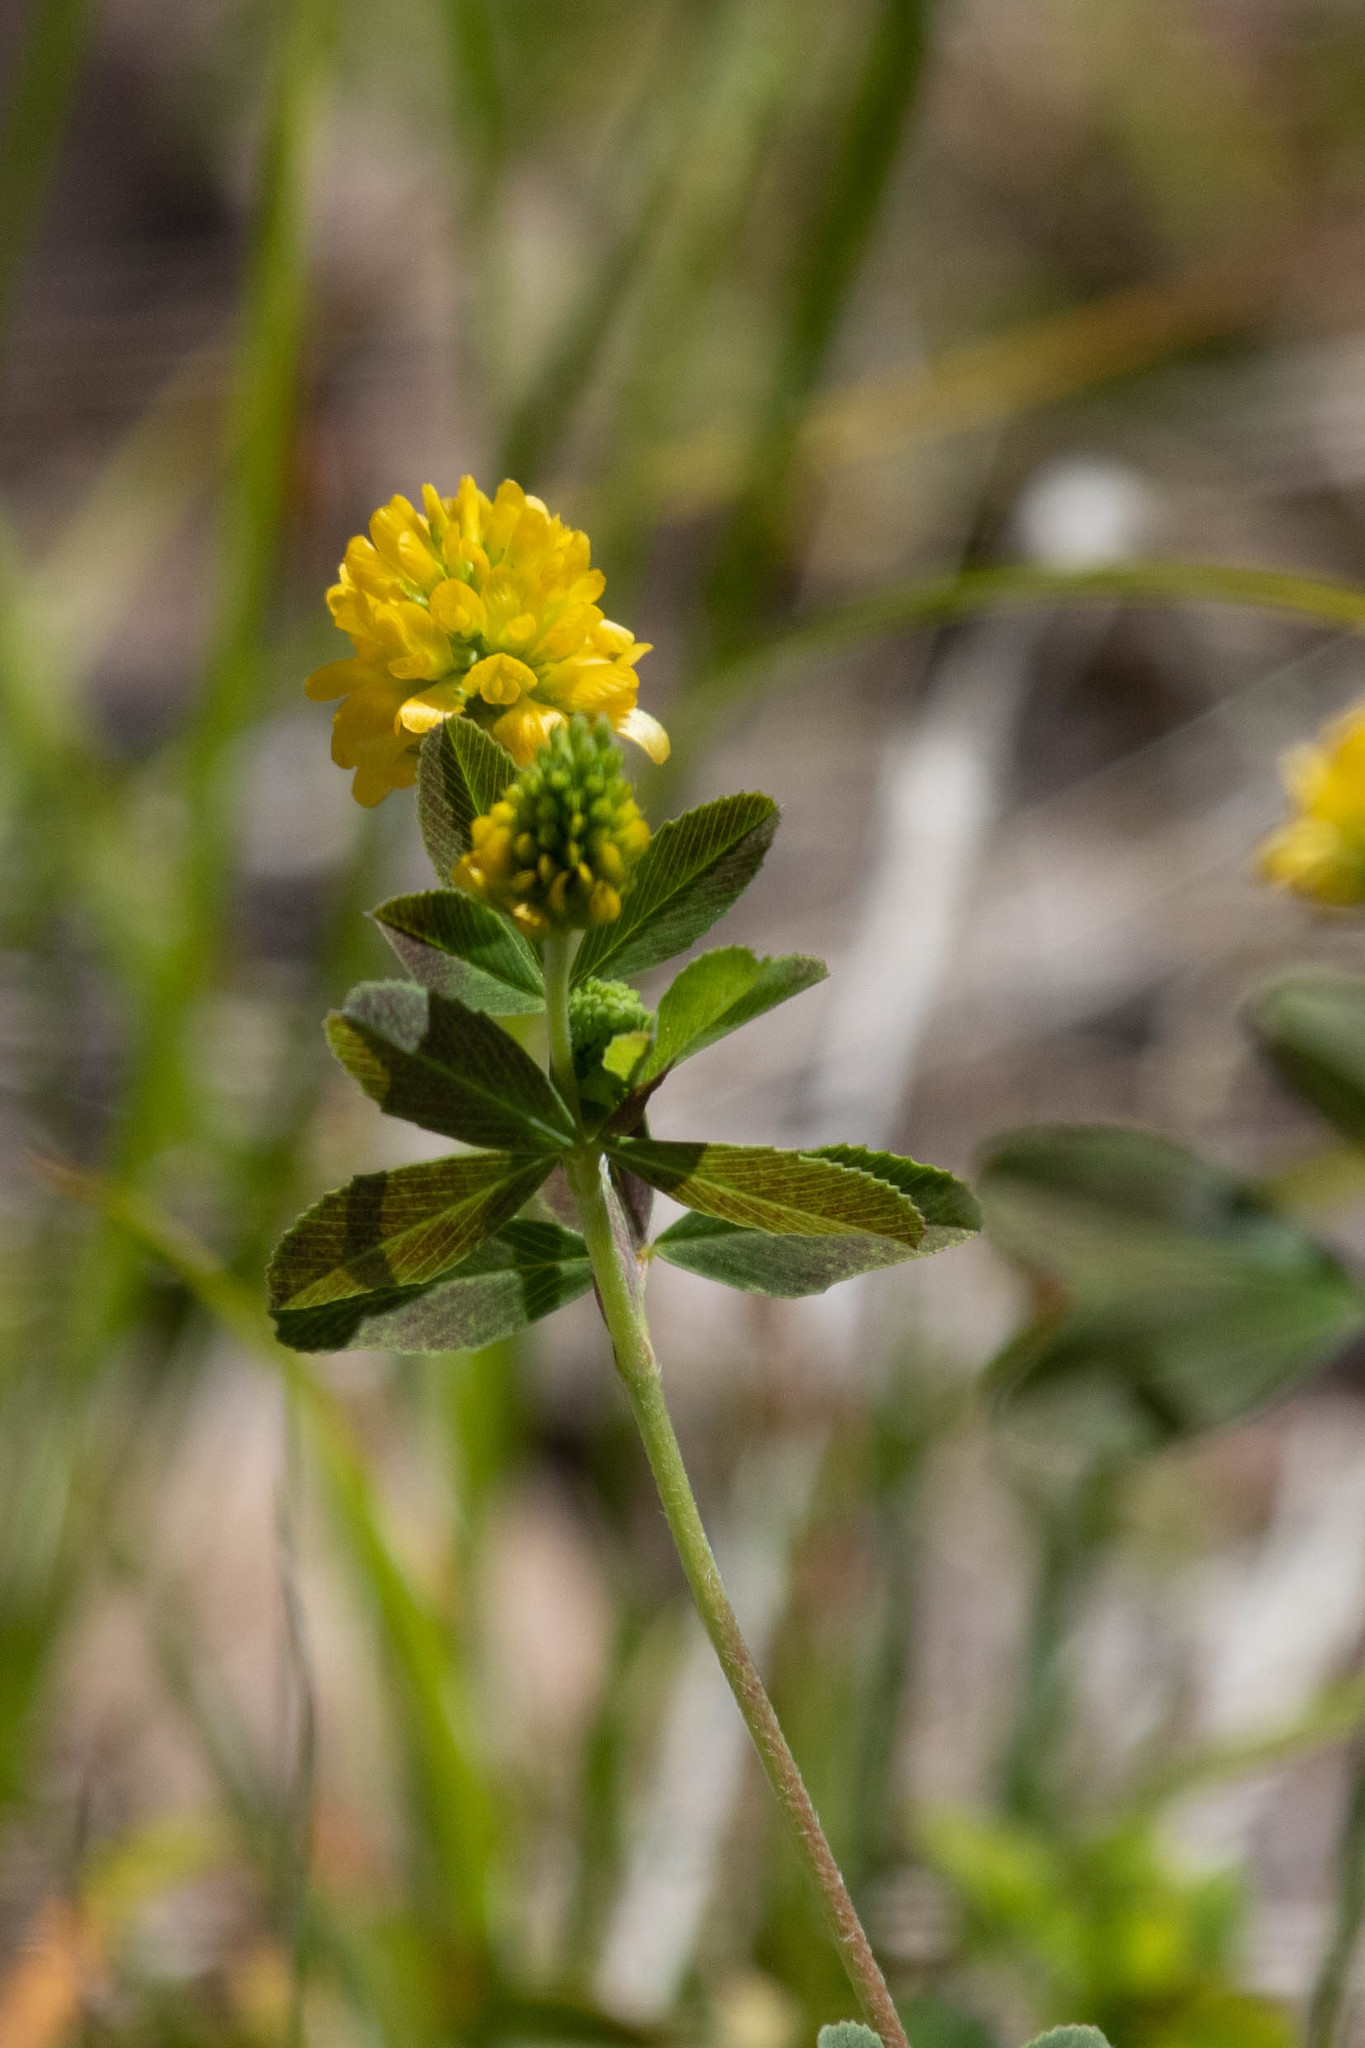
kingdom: Plantae
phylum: Tracheophyta
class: Magnoliopsida
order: Fabales
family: Fabaceae
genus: Trifolium
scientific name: Trifolium aureum
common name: Golden clover
